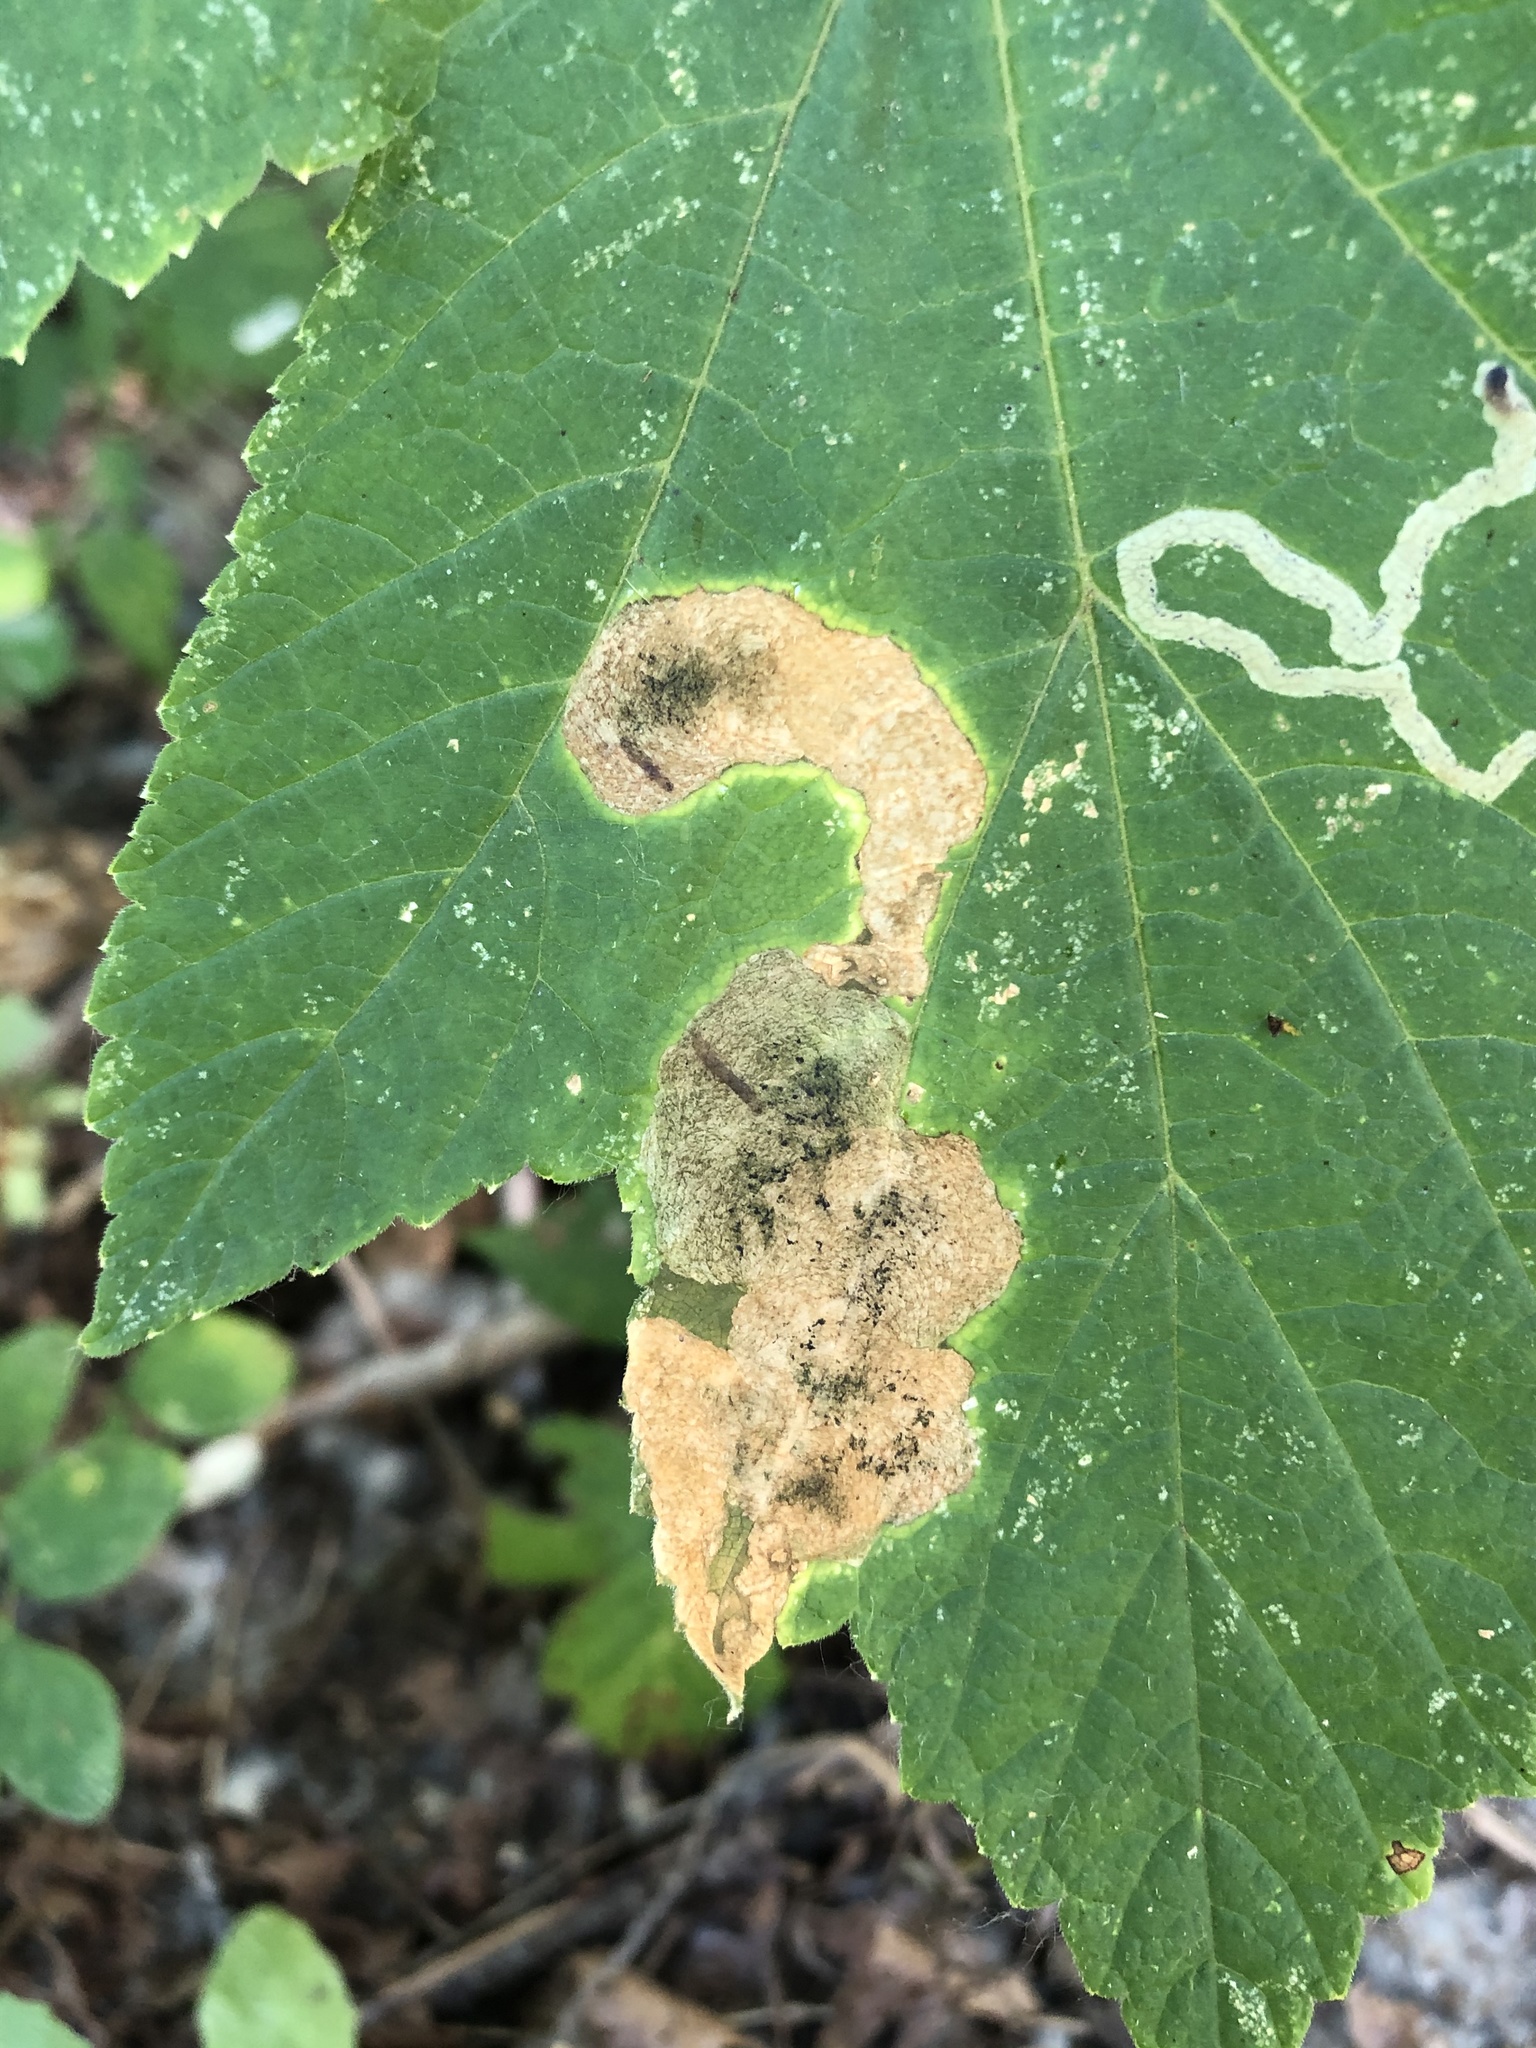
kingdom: Animalia
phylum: Arthropoda
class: Insecta
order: Diptera
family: Tephritidae
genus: Euleia
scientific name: Euleia fratria
